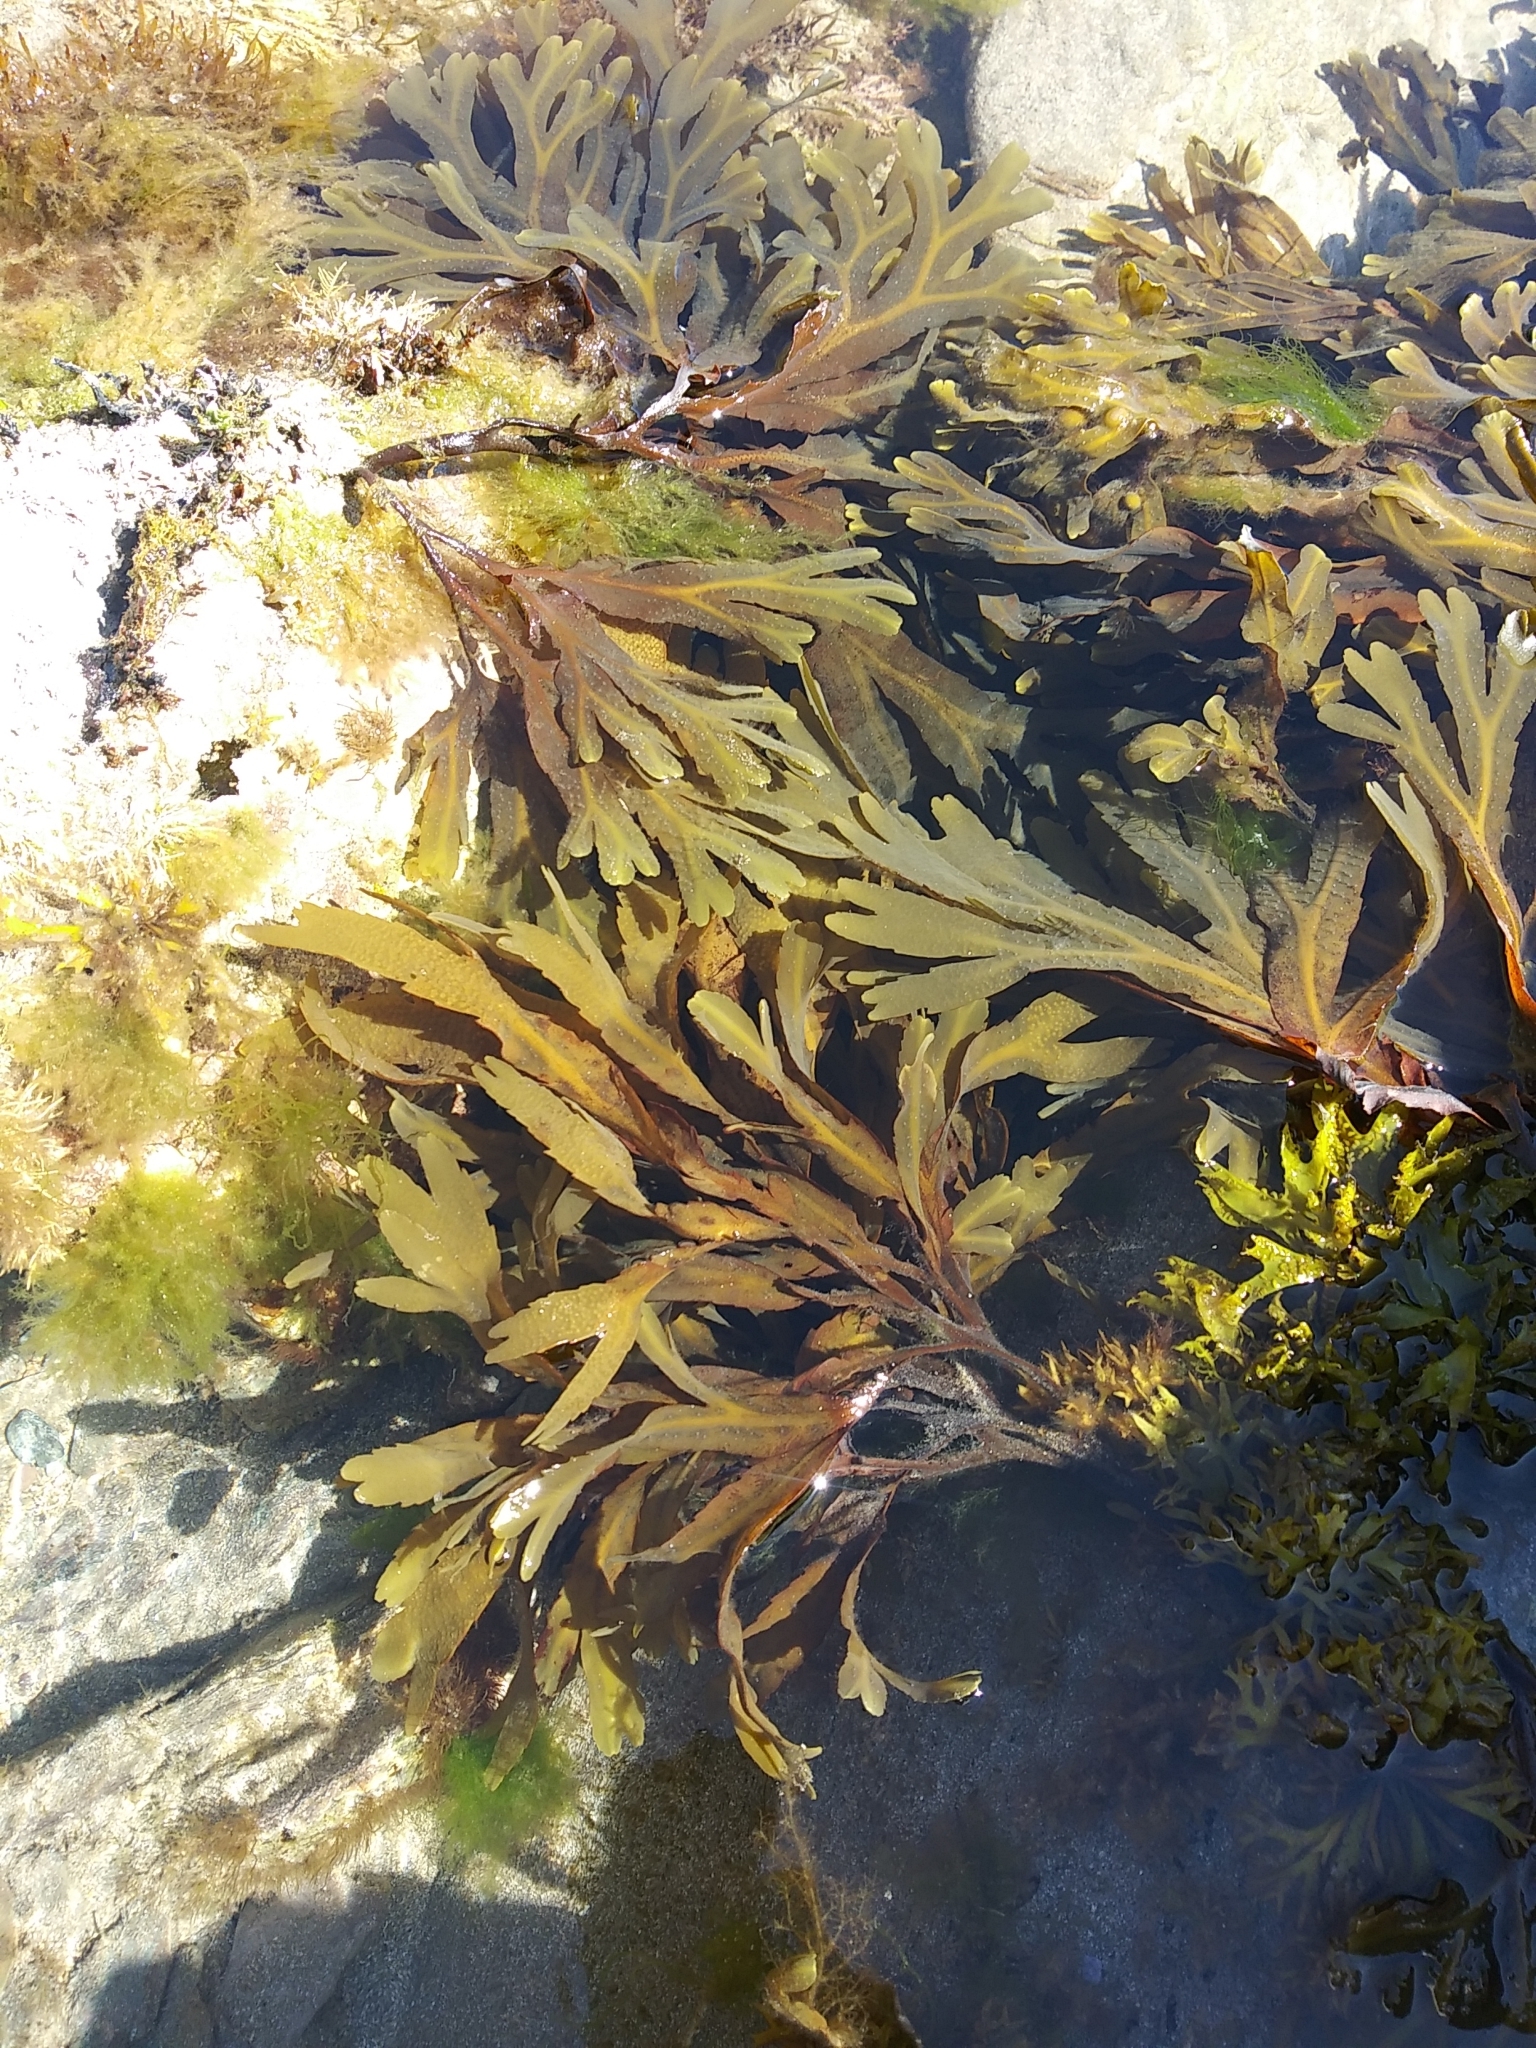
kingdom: Chromista
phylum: Ochrophyta
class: Phaeophyceae
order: Fucales
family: Fucaceae
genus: Fucus
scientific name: Fucus serratus
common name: Toothed wrack
